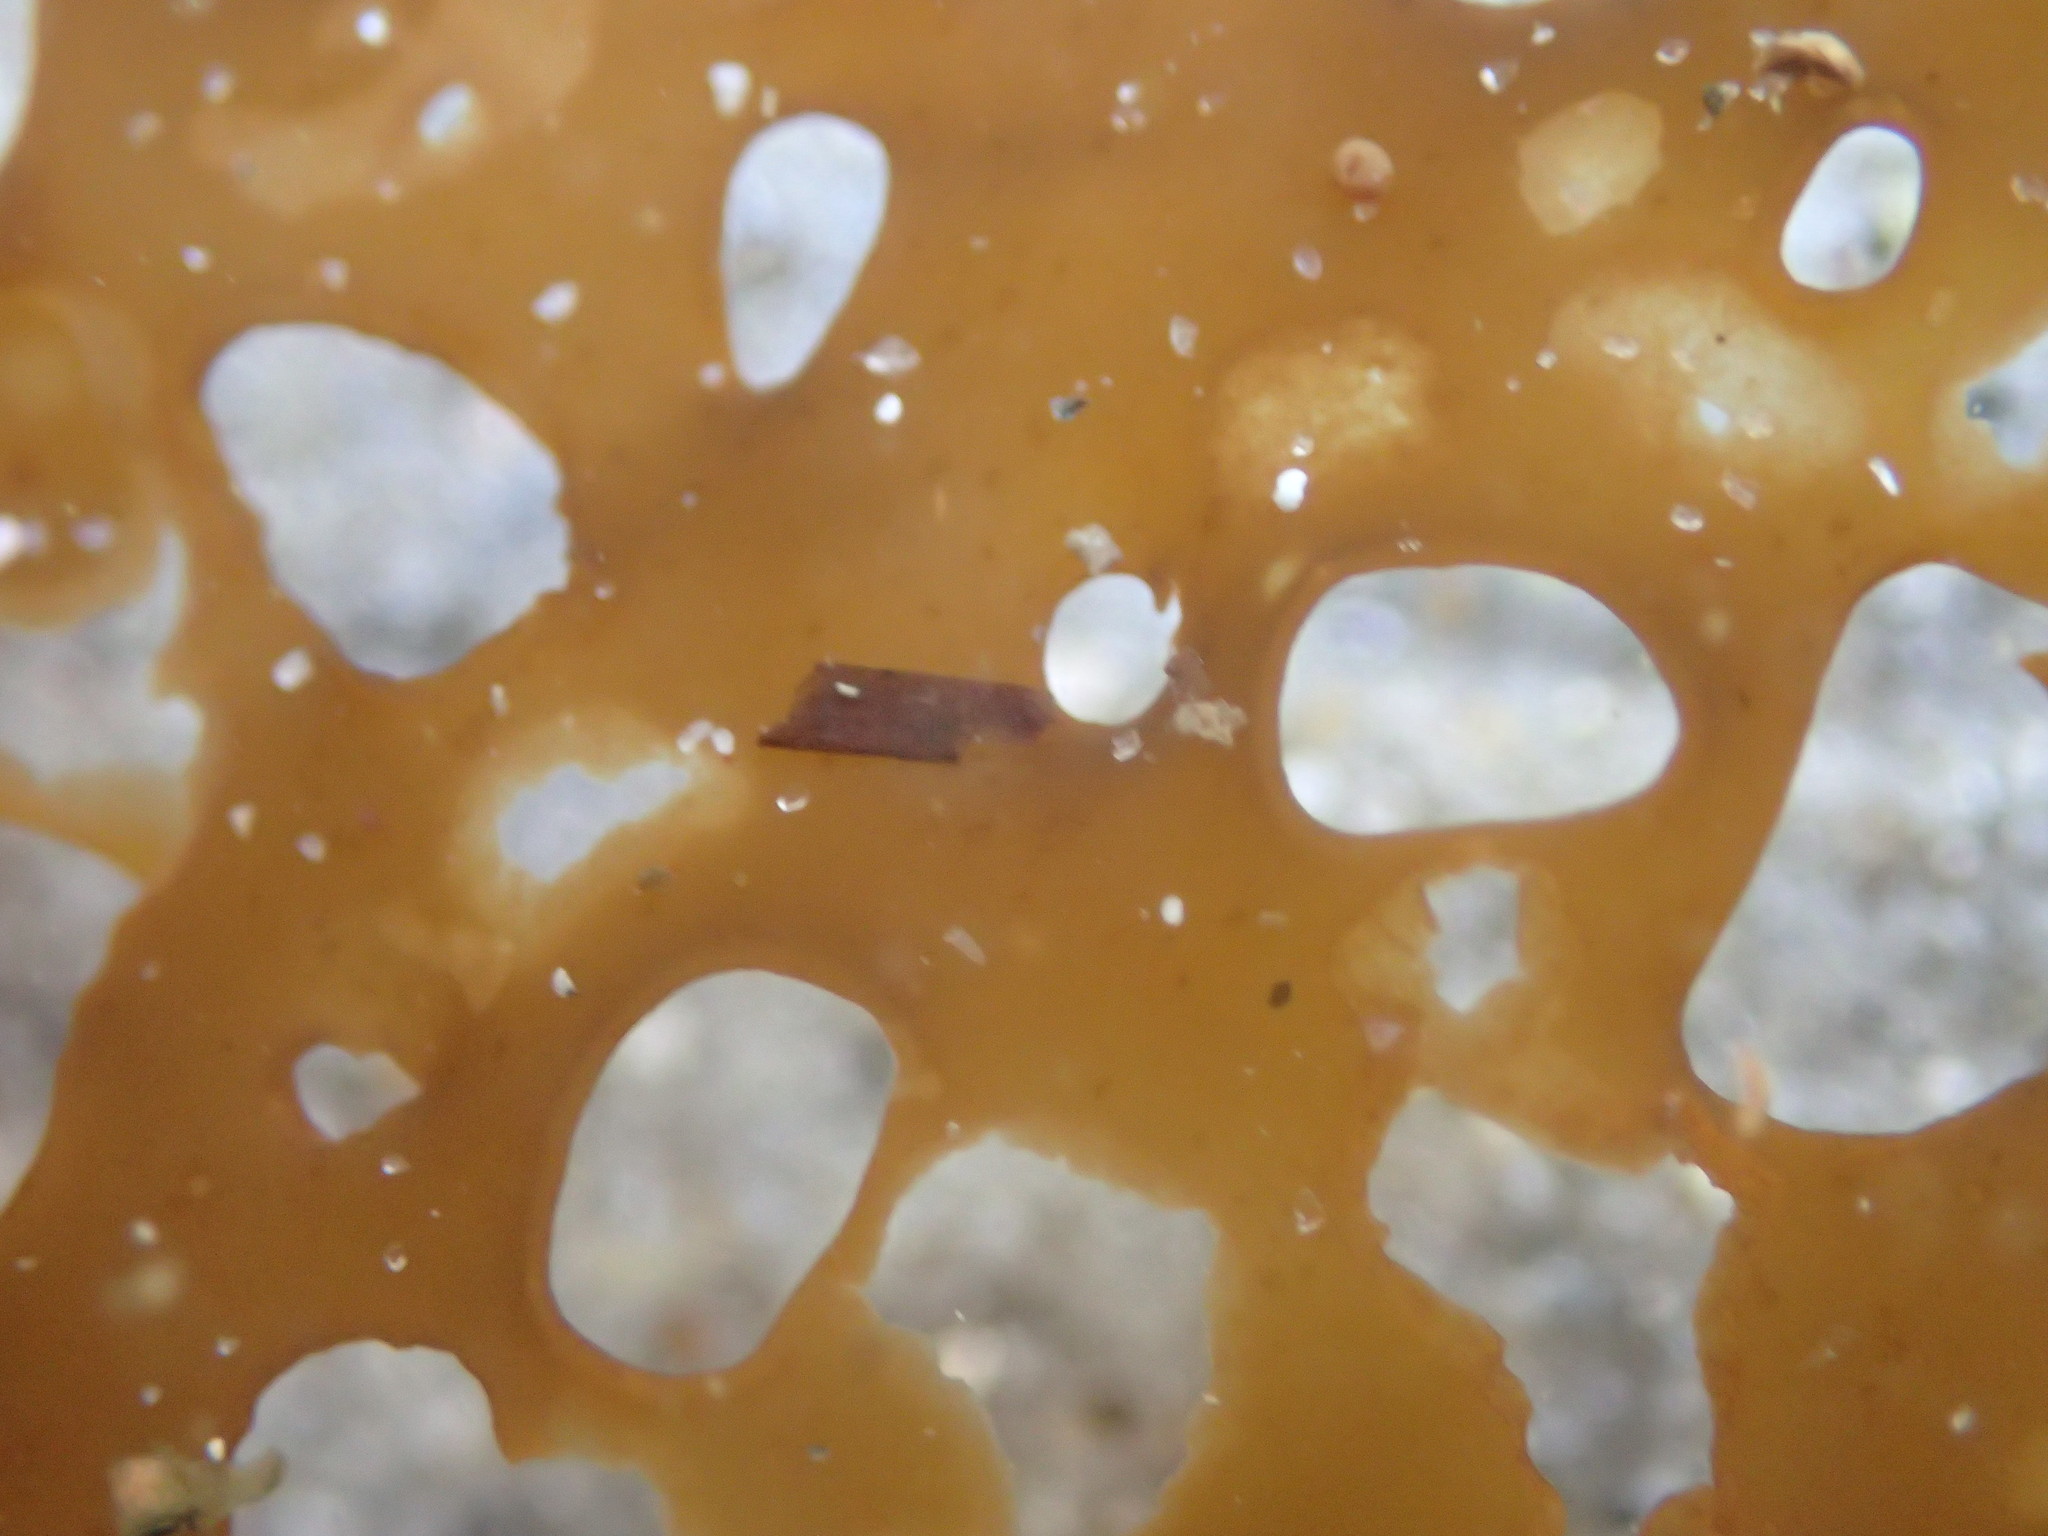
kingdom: Chromista
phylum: Ochrophyta
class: Phaeophyceae
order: Laminariales
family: Costariaceae
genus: Agarum
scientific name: Agarum clathratum
